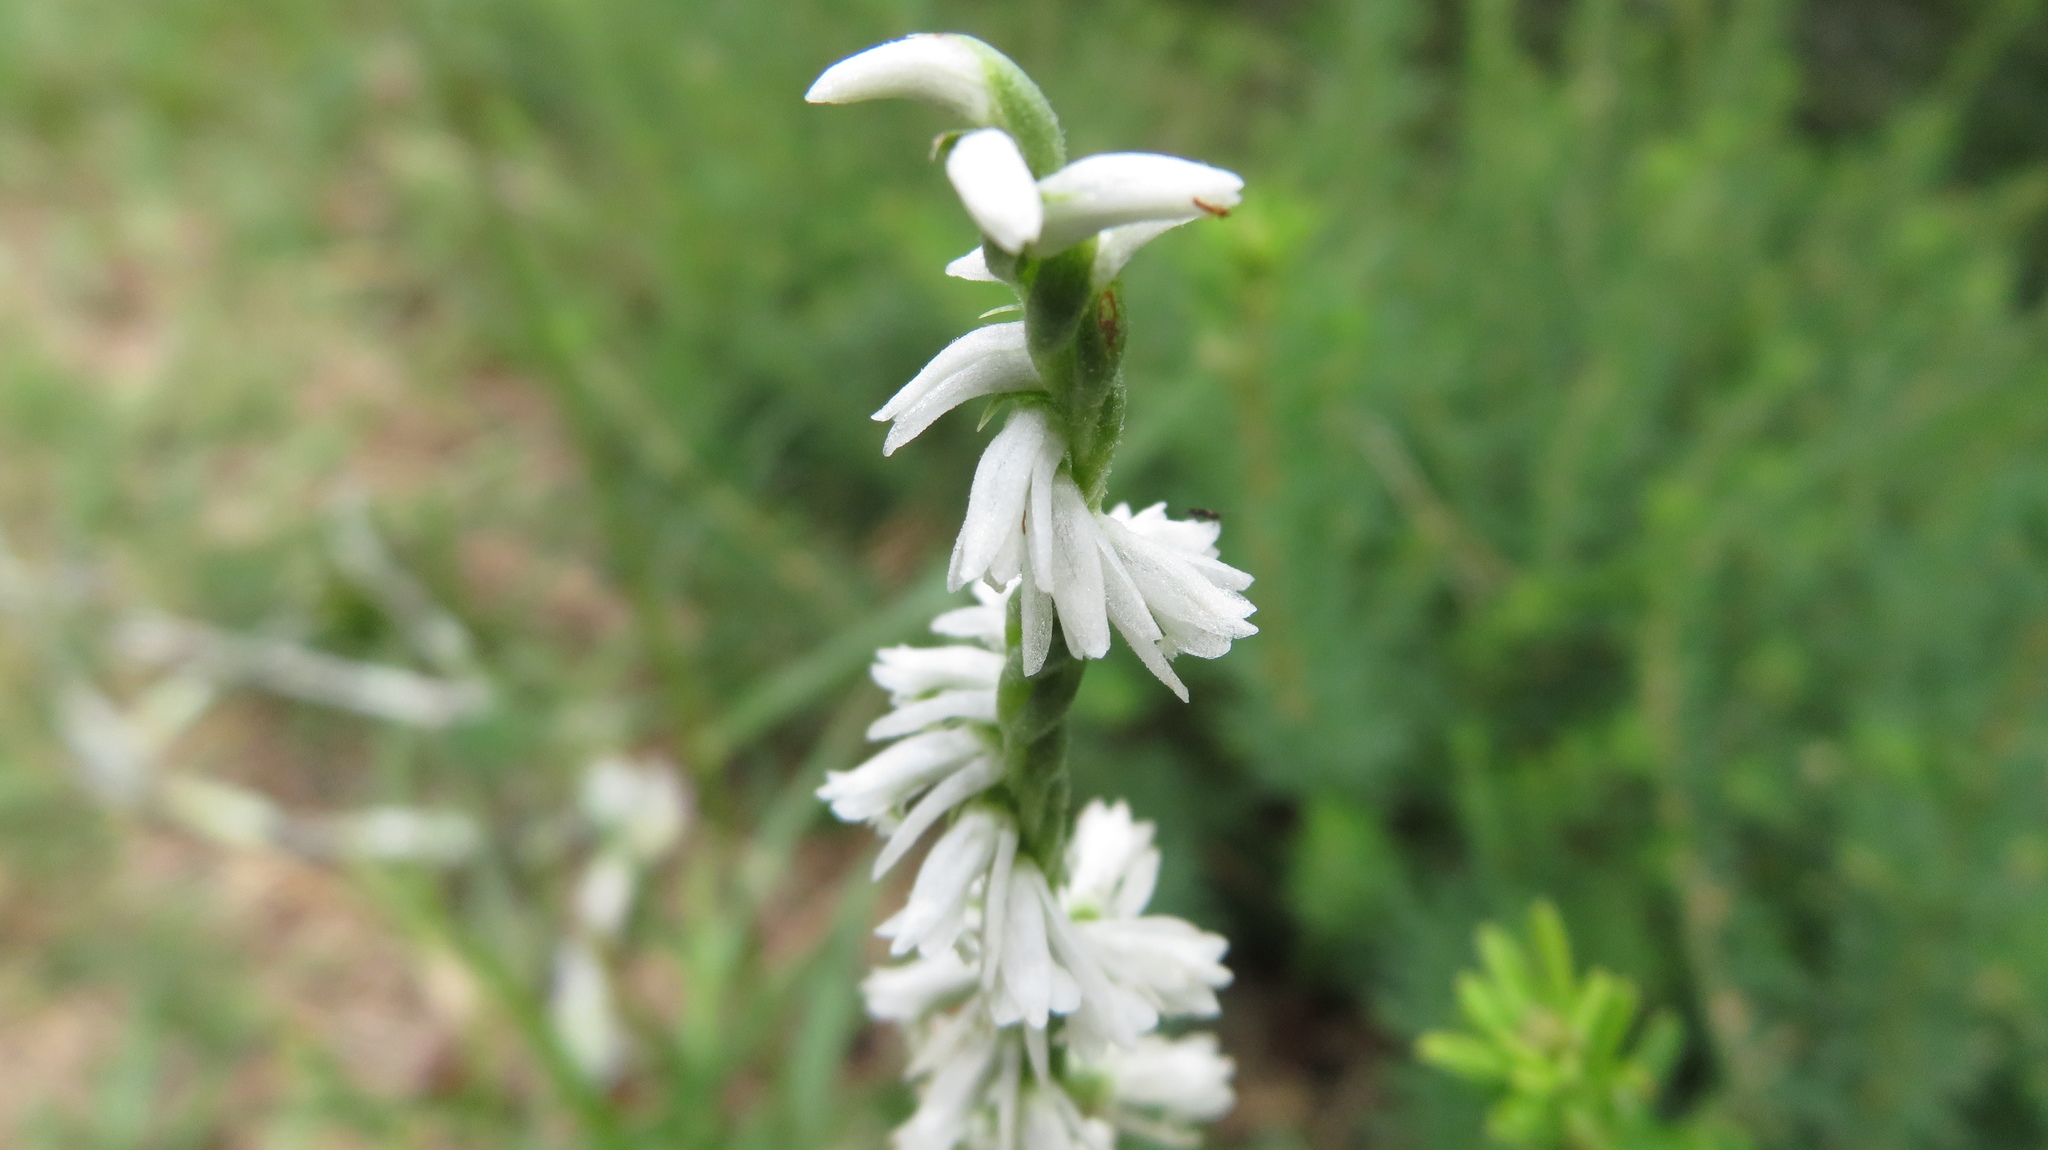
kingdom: Plantae
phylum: Tracheophyta
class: Liliopsida
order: Asparagales
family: Orchidaceae
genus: Spiranthes
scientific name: Spiranthes lacera
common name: Northern slender ladies'-tresses
